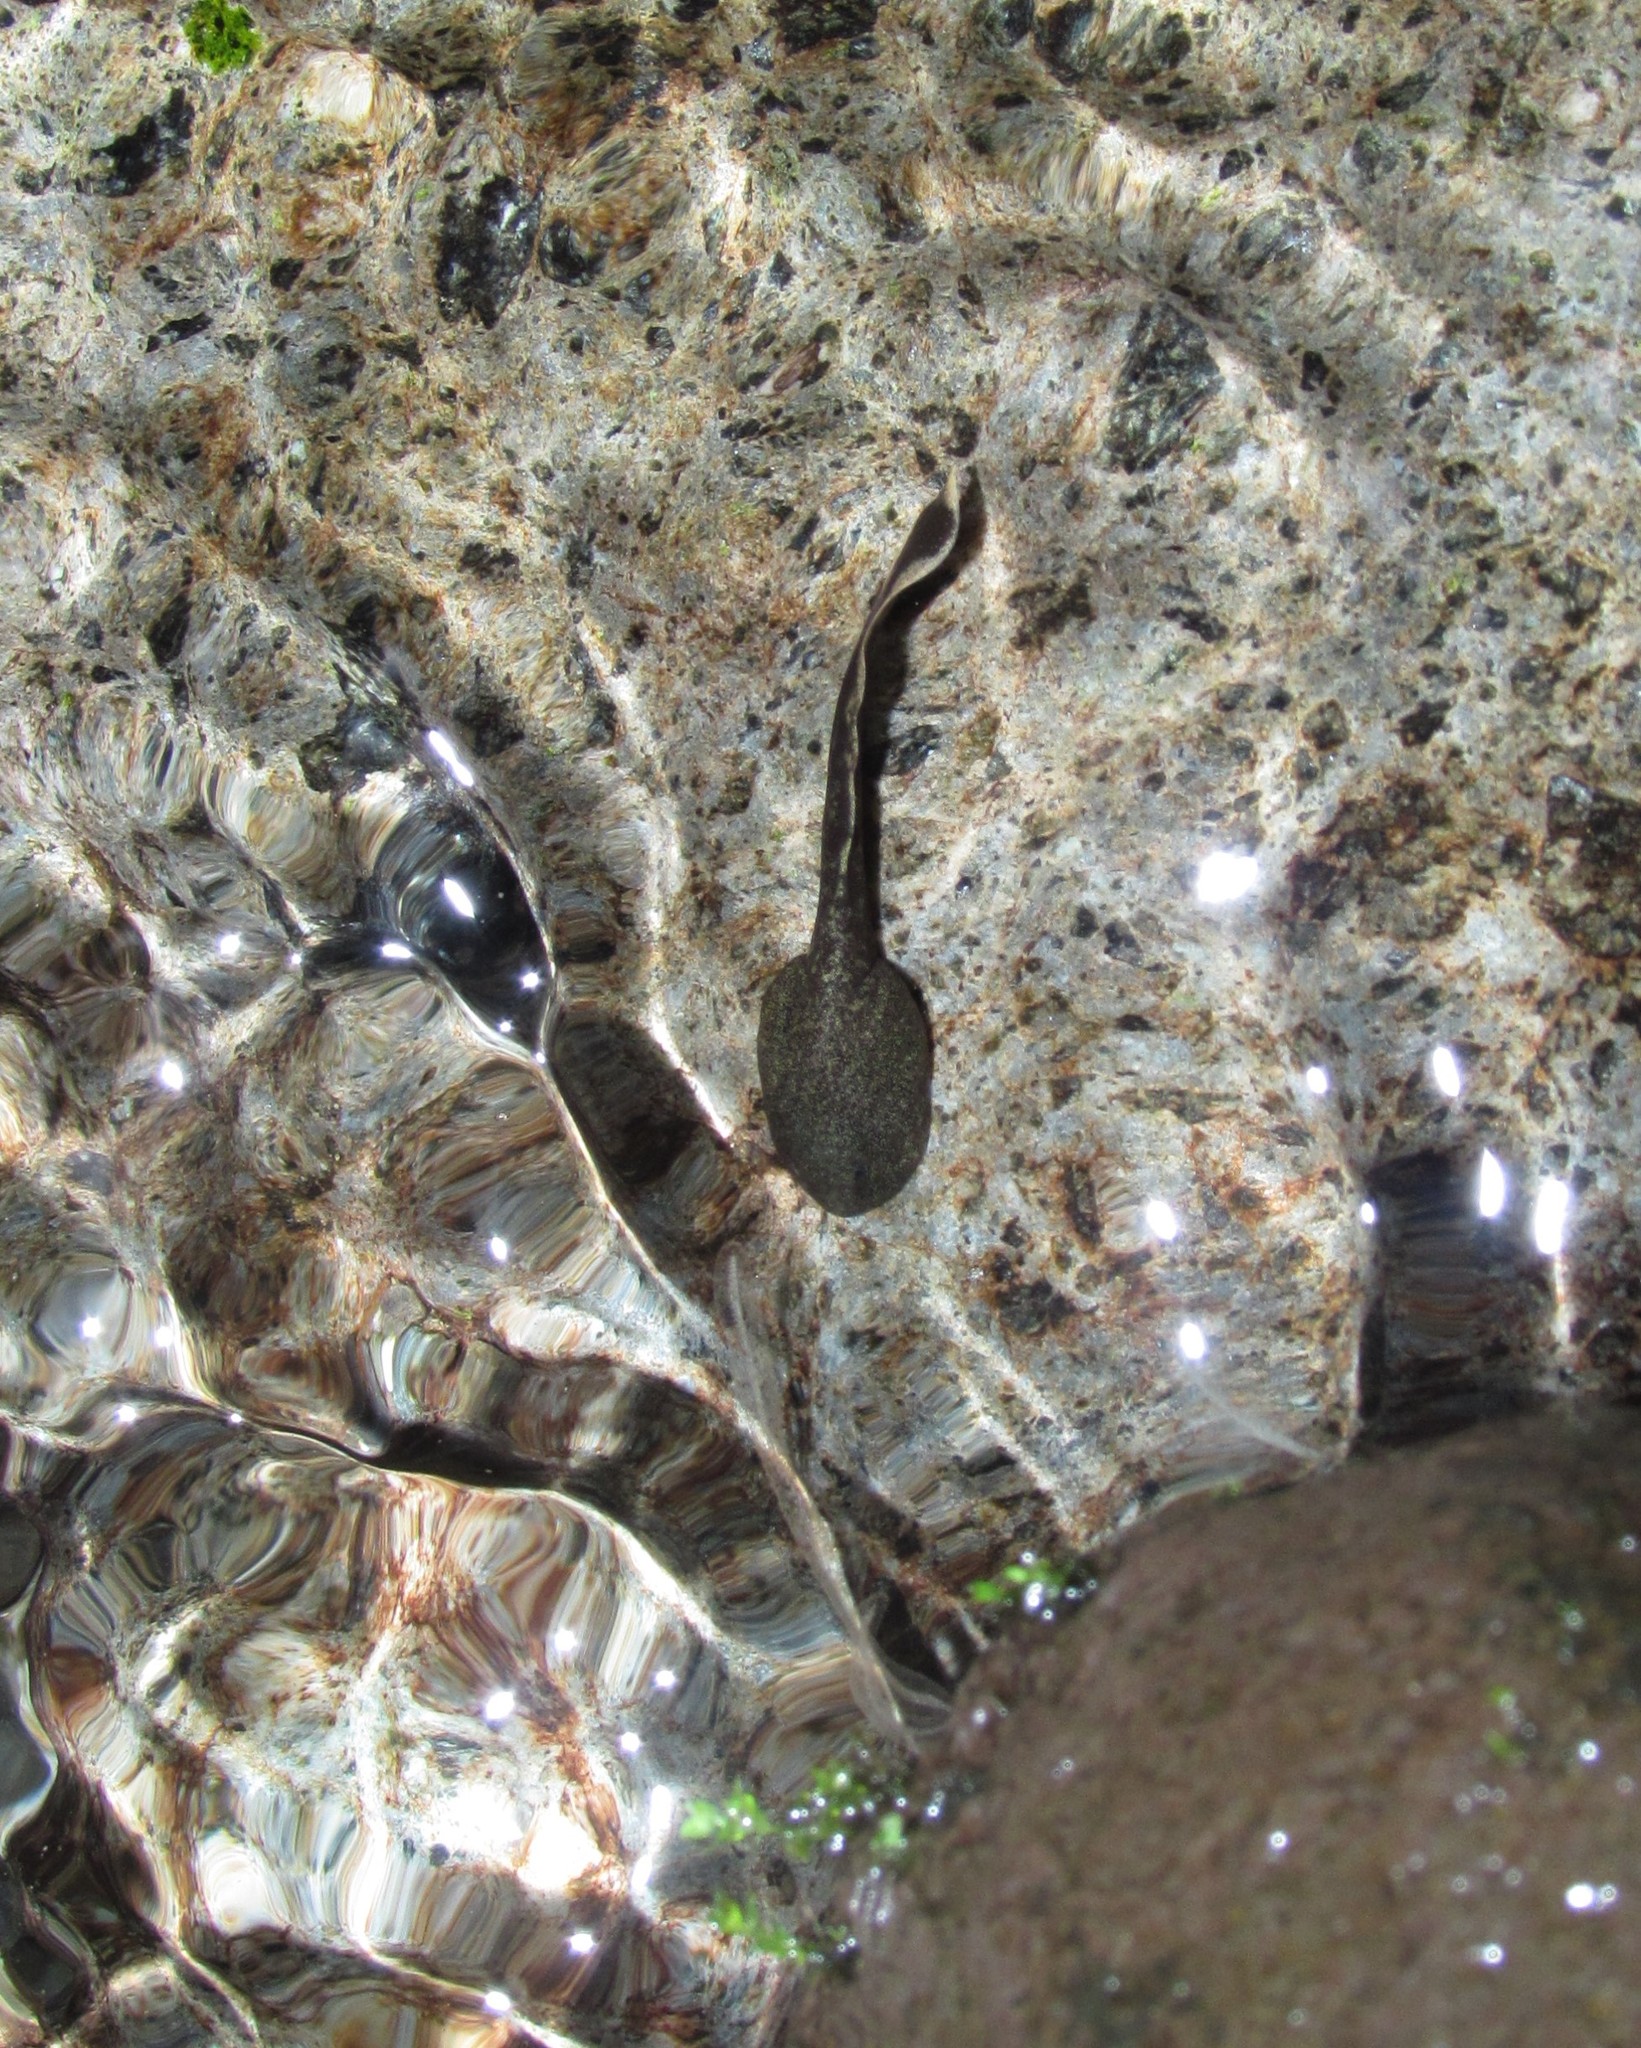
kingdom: Animalia
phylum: Chordata
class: Amphibia
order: Anura
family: Ascaphidae
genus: Ascaphus
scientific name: Ascaphus truei
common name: Tailed frog
